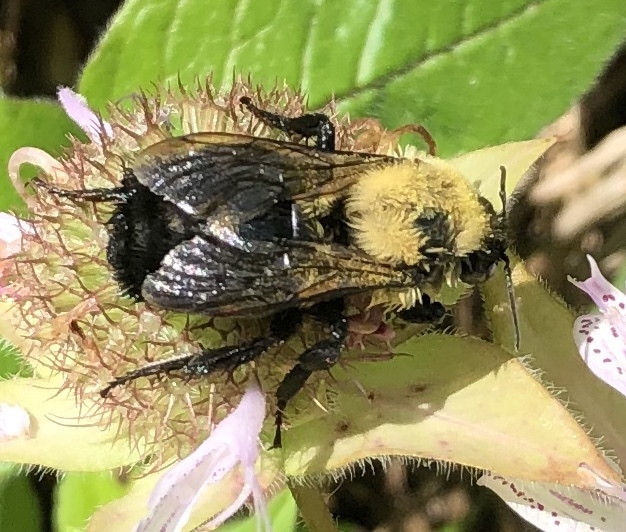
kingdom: Animalia
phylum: Arthropoda
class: Insecta
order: Hymenoptera
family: Apidae
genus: Bombus
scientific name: Bombus impatiens
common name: Common eastern bumble bee
